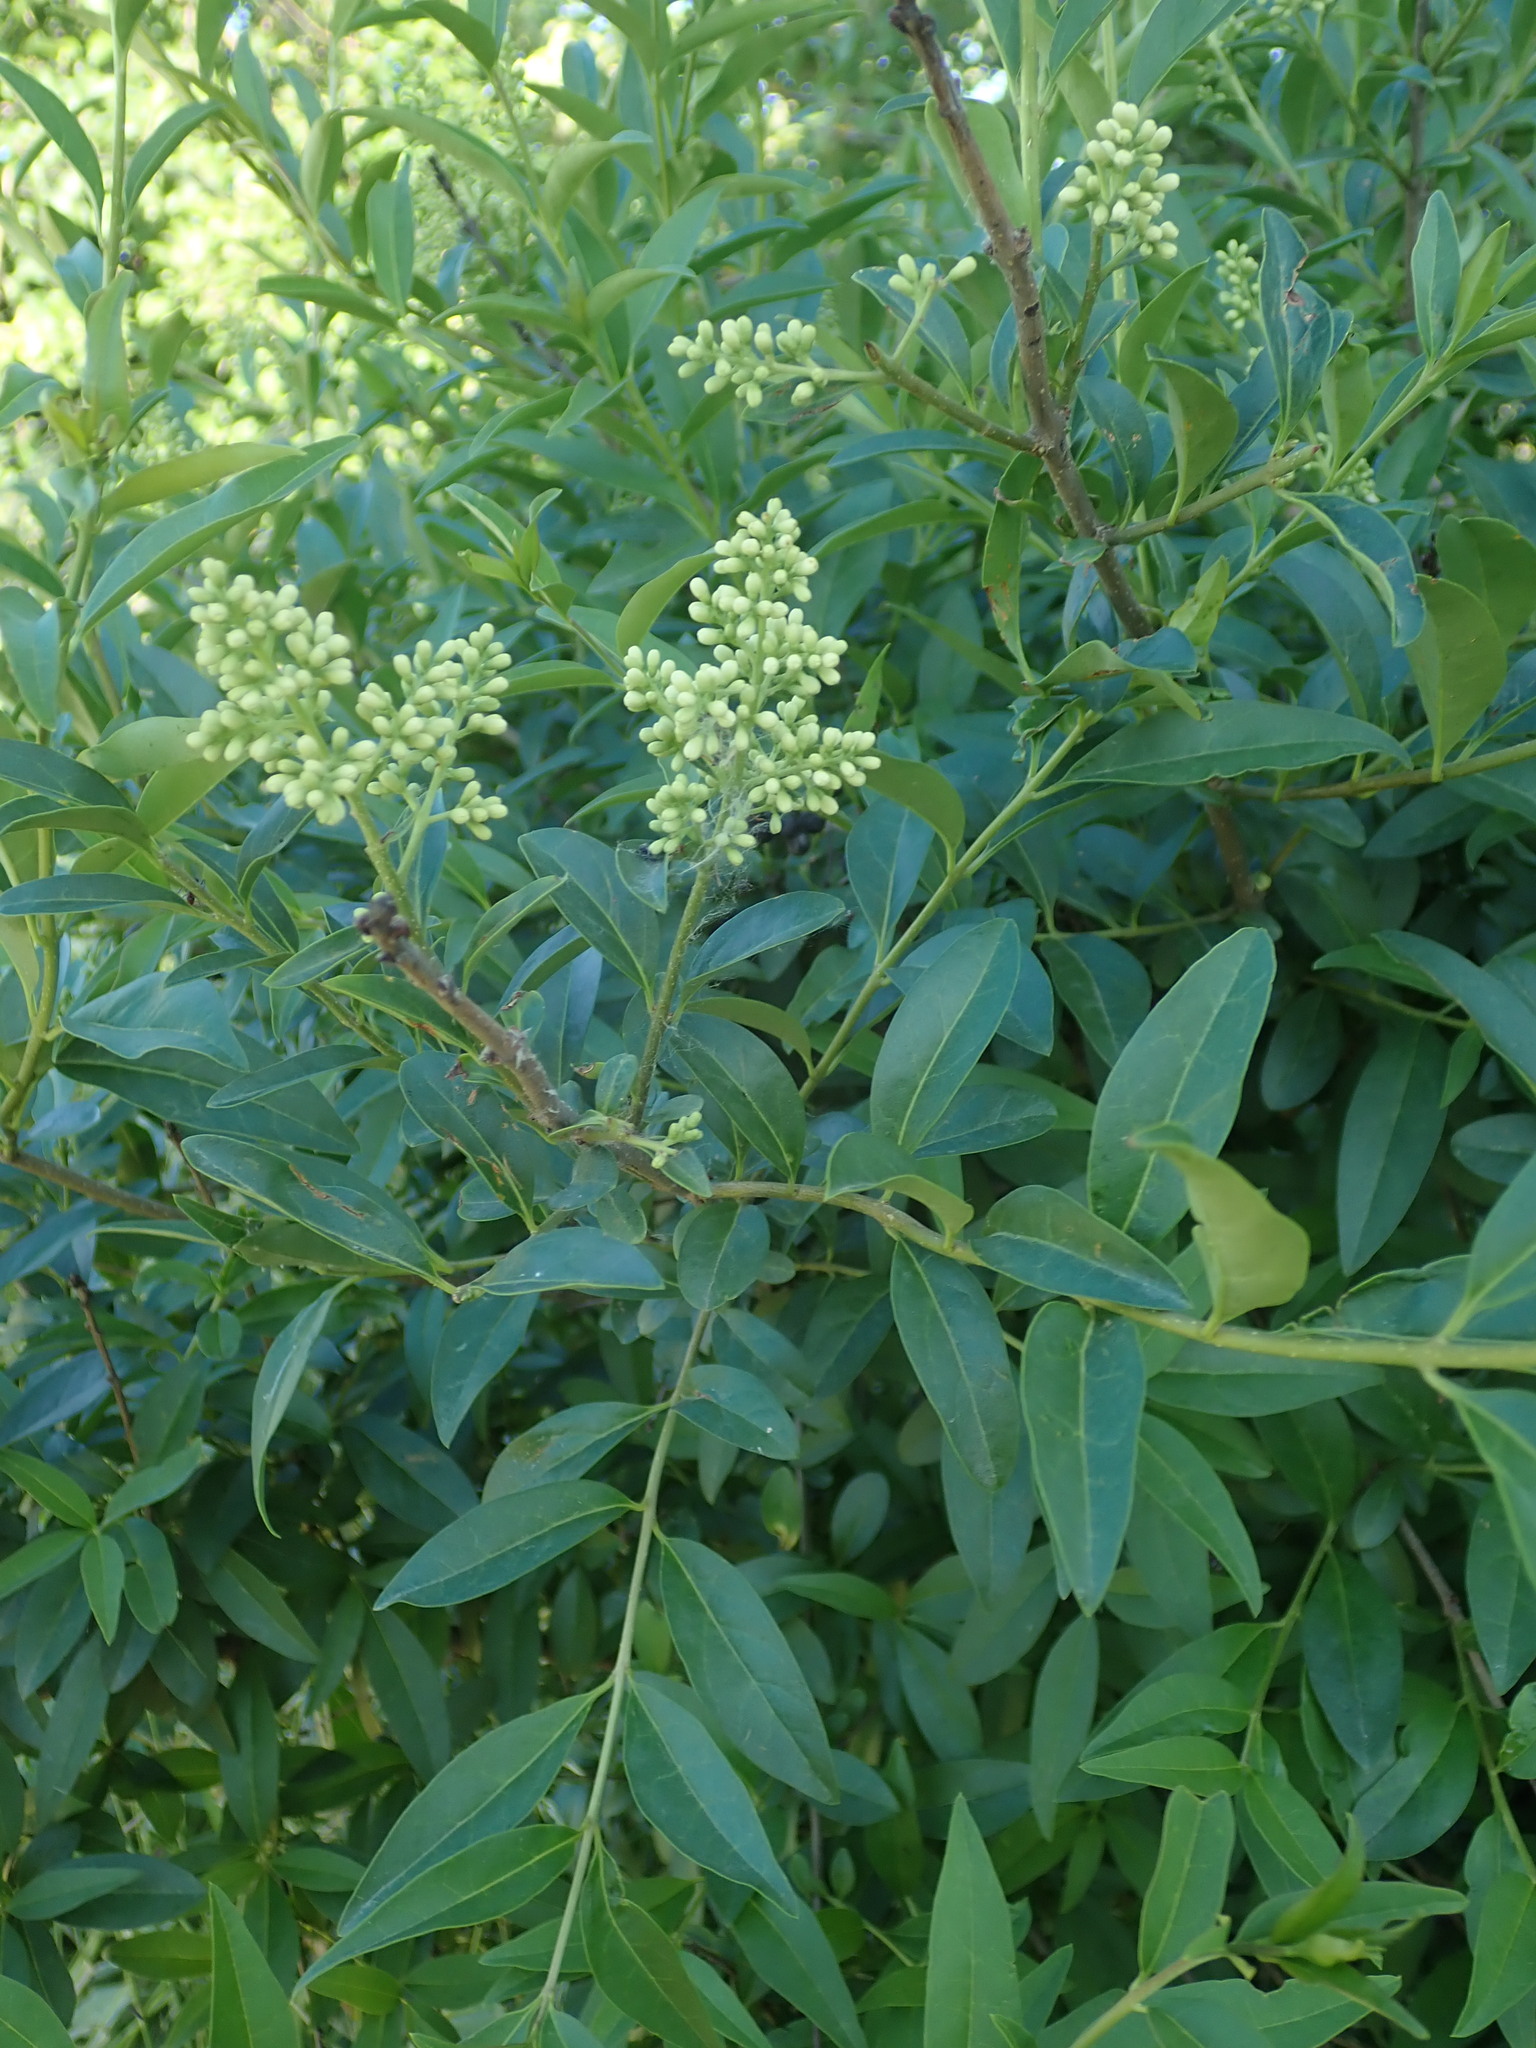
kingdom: Plantae
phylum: Tracheophyta
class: Magnoliopsida
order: Lamiales
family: Oleaceae
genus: Ligustrum
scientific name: Ligustrum vulgare
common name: Wild privet
